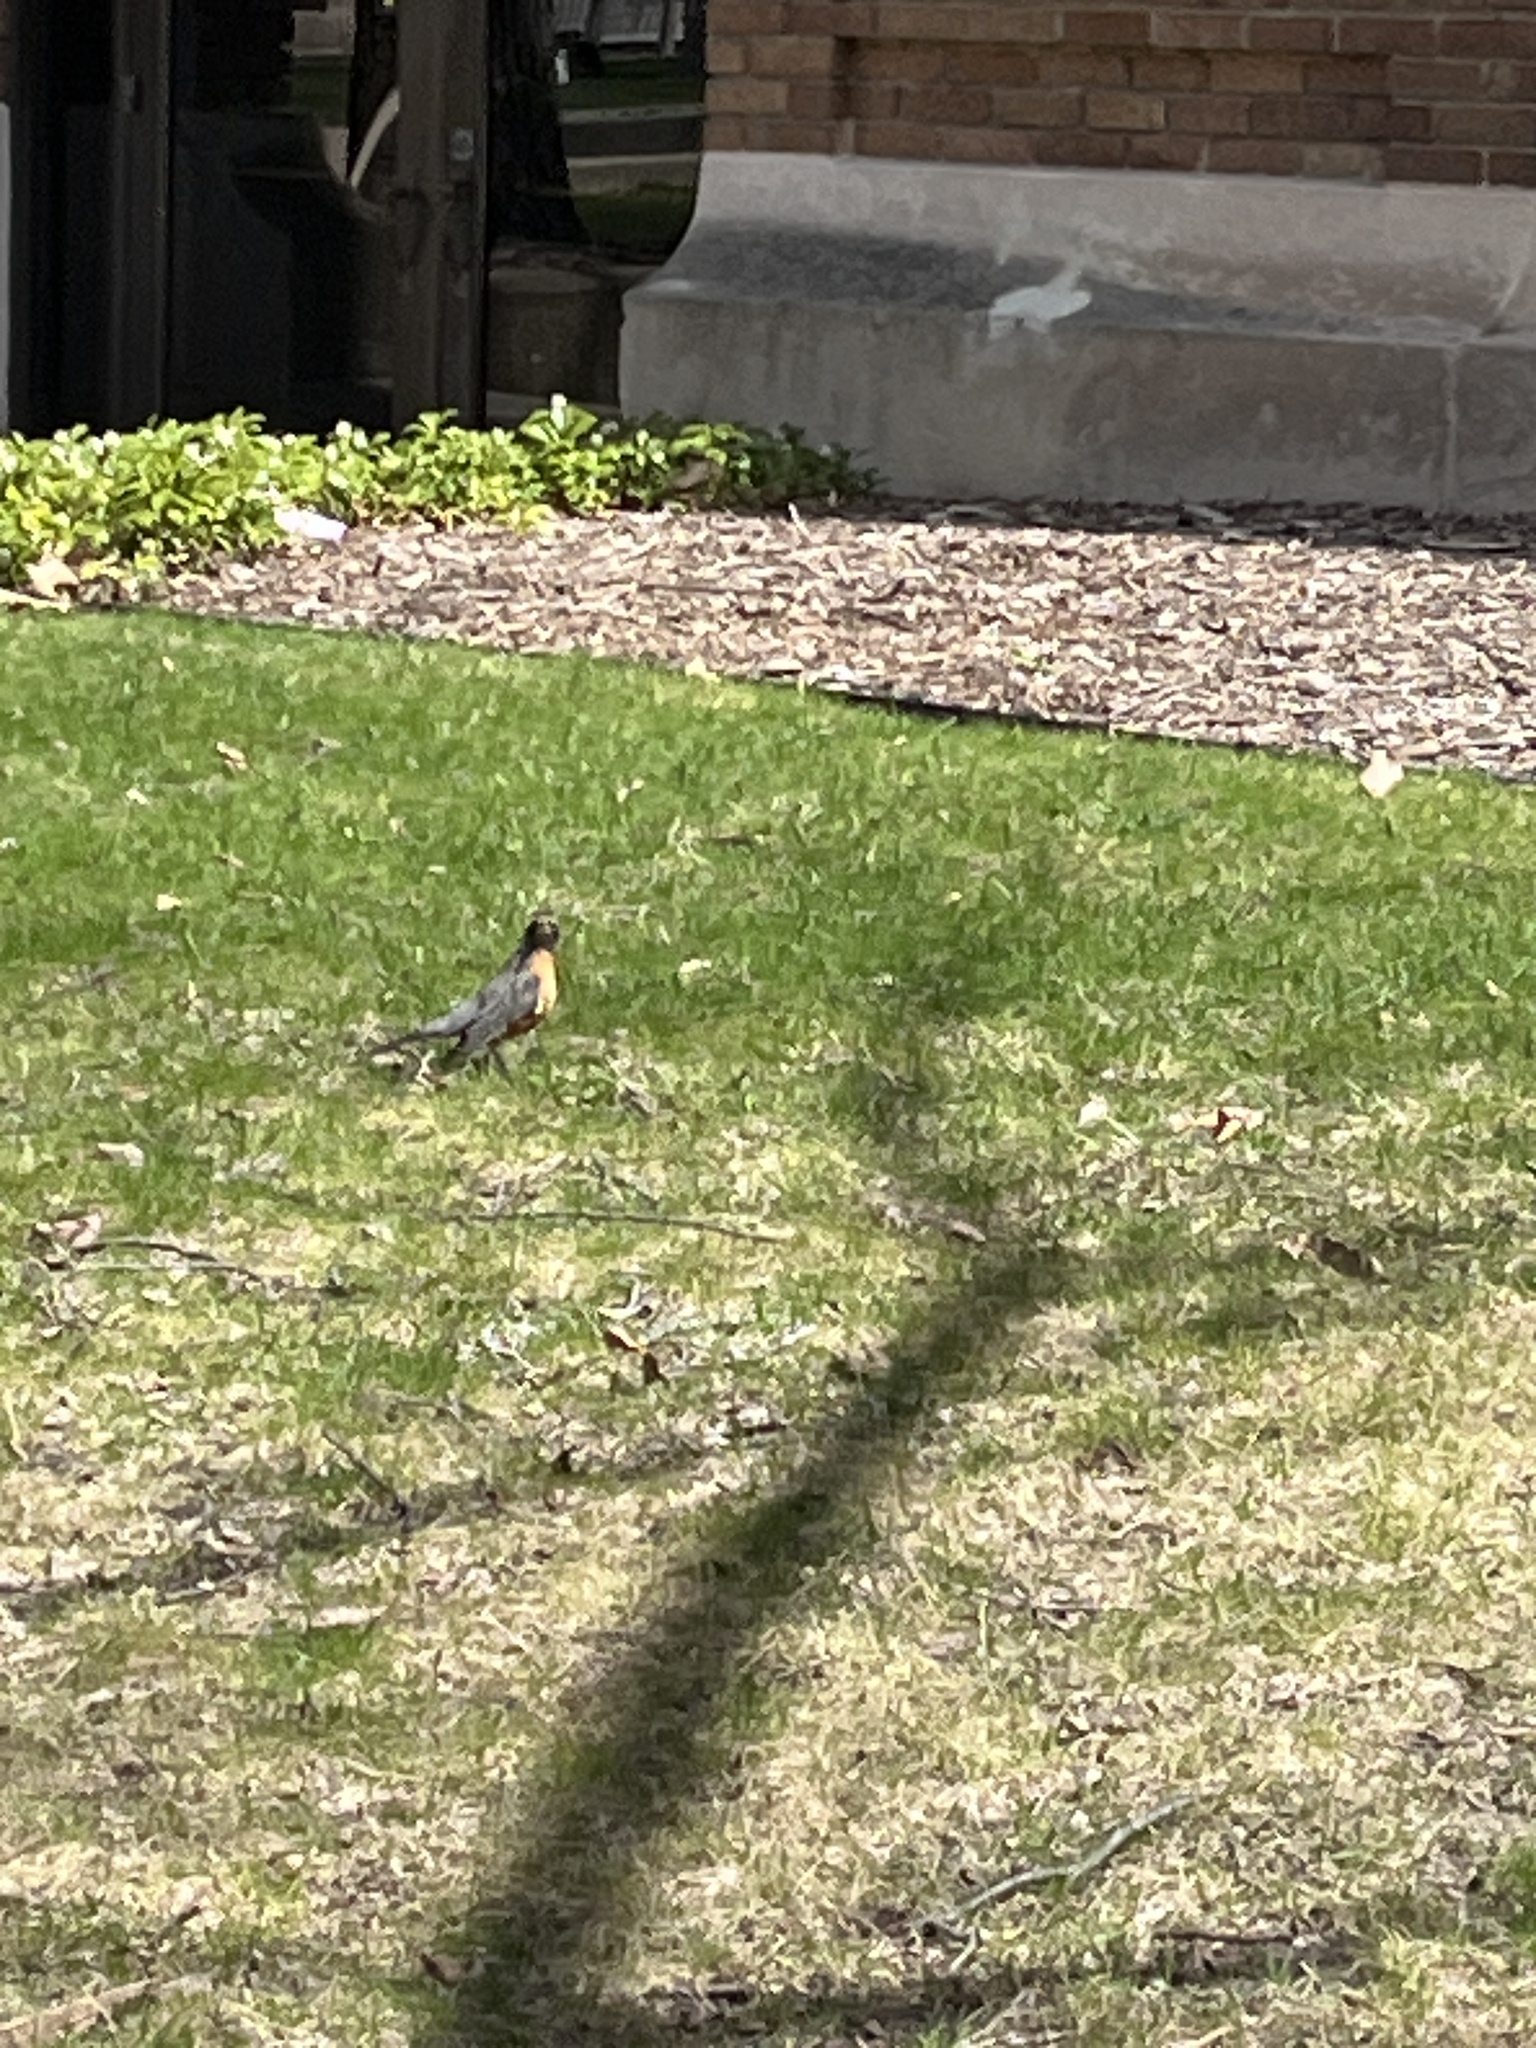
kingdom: Animalia
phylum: Chordata
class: Aves
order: Passeriformes
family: Turdidae
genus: Turdus
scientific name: Turdus migratorius
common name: American robin
